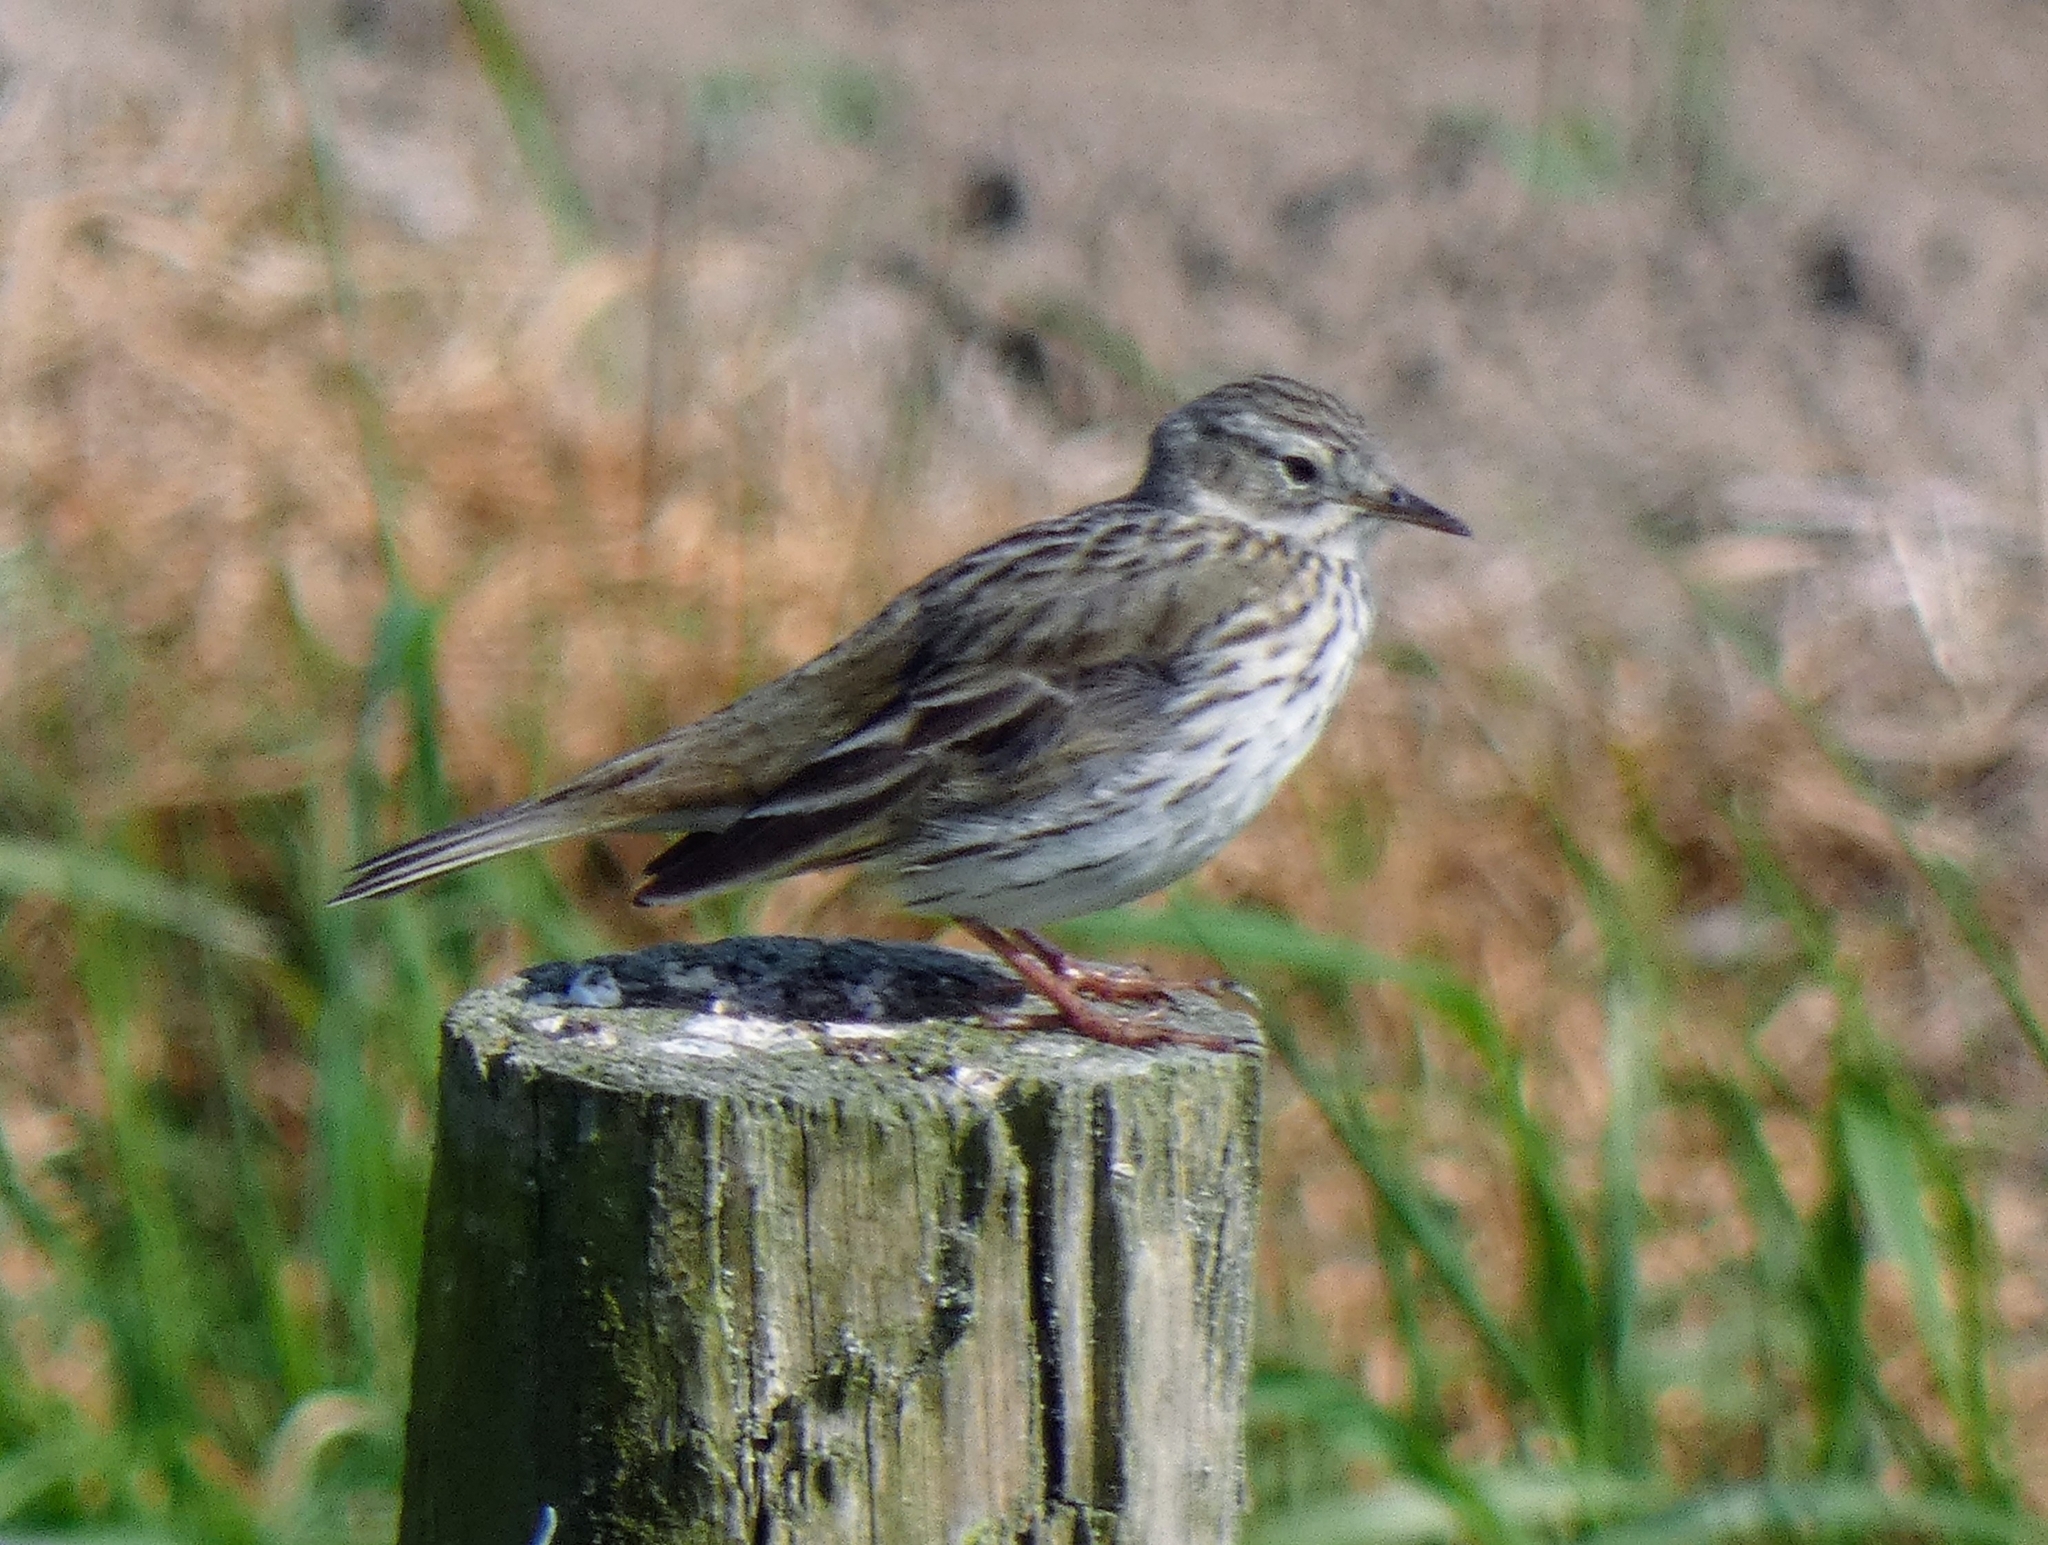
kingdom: Animalia
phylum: Chordata
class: Aves
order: Passeriformes
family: Motacillidae
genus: Anthus
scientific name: Anthus pratensis
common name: Meadow pipit
